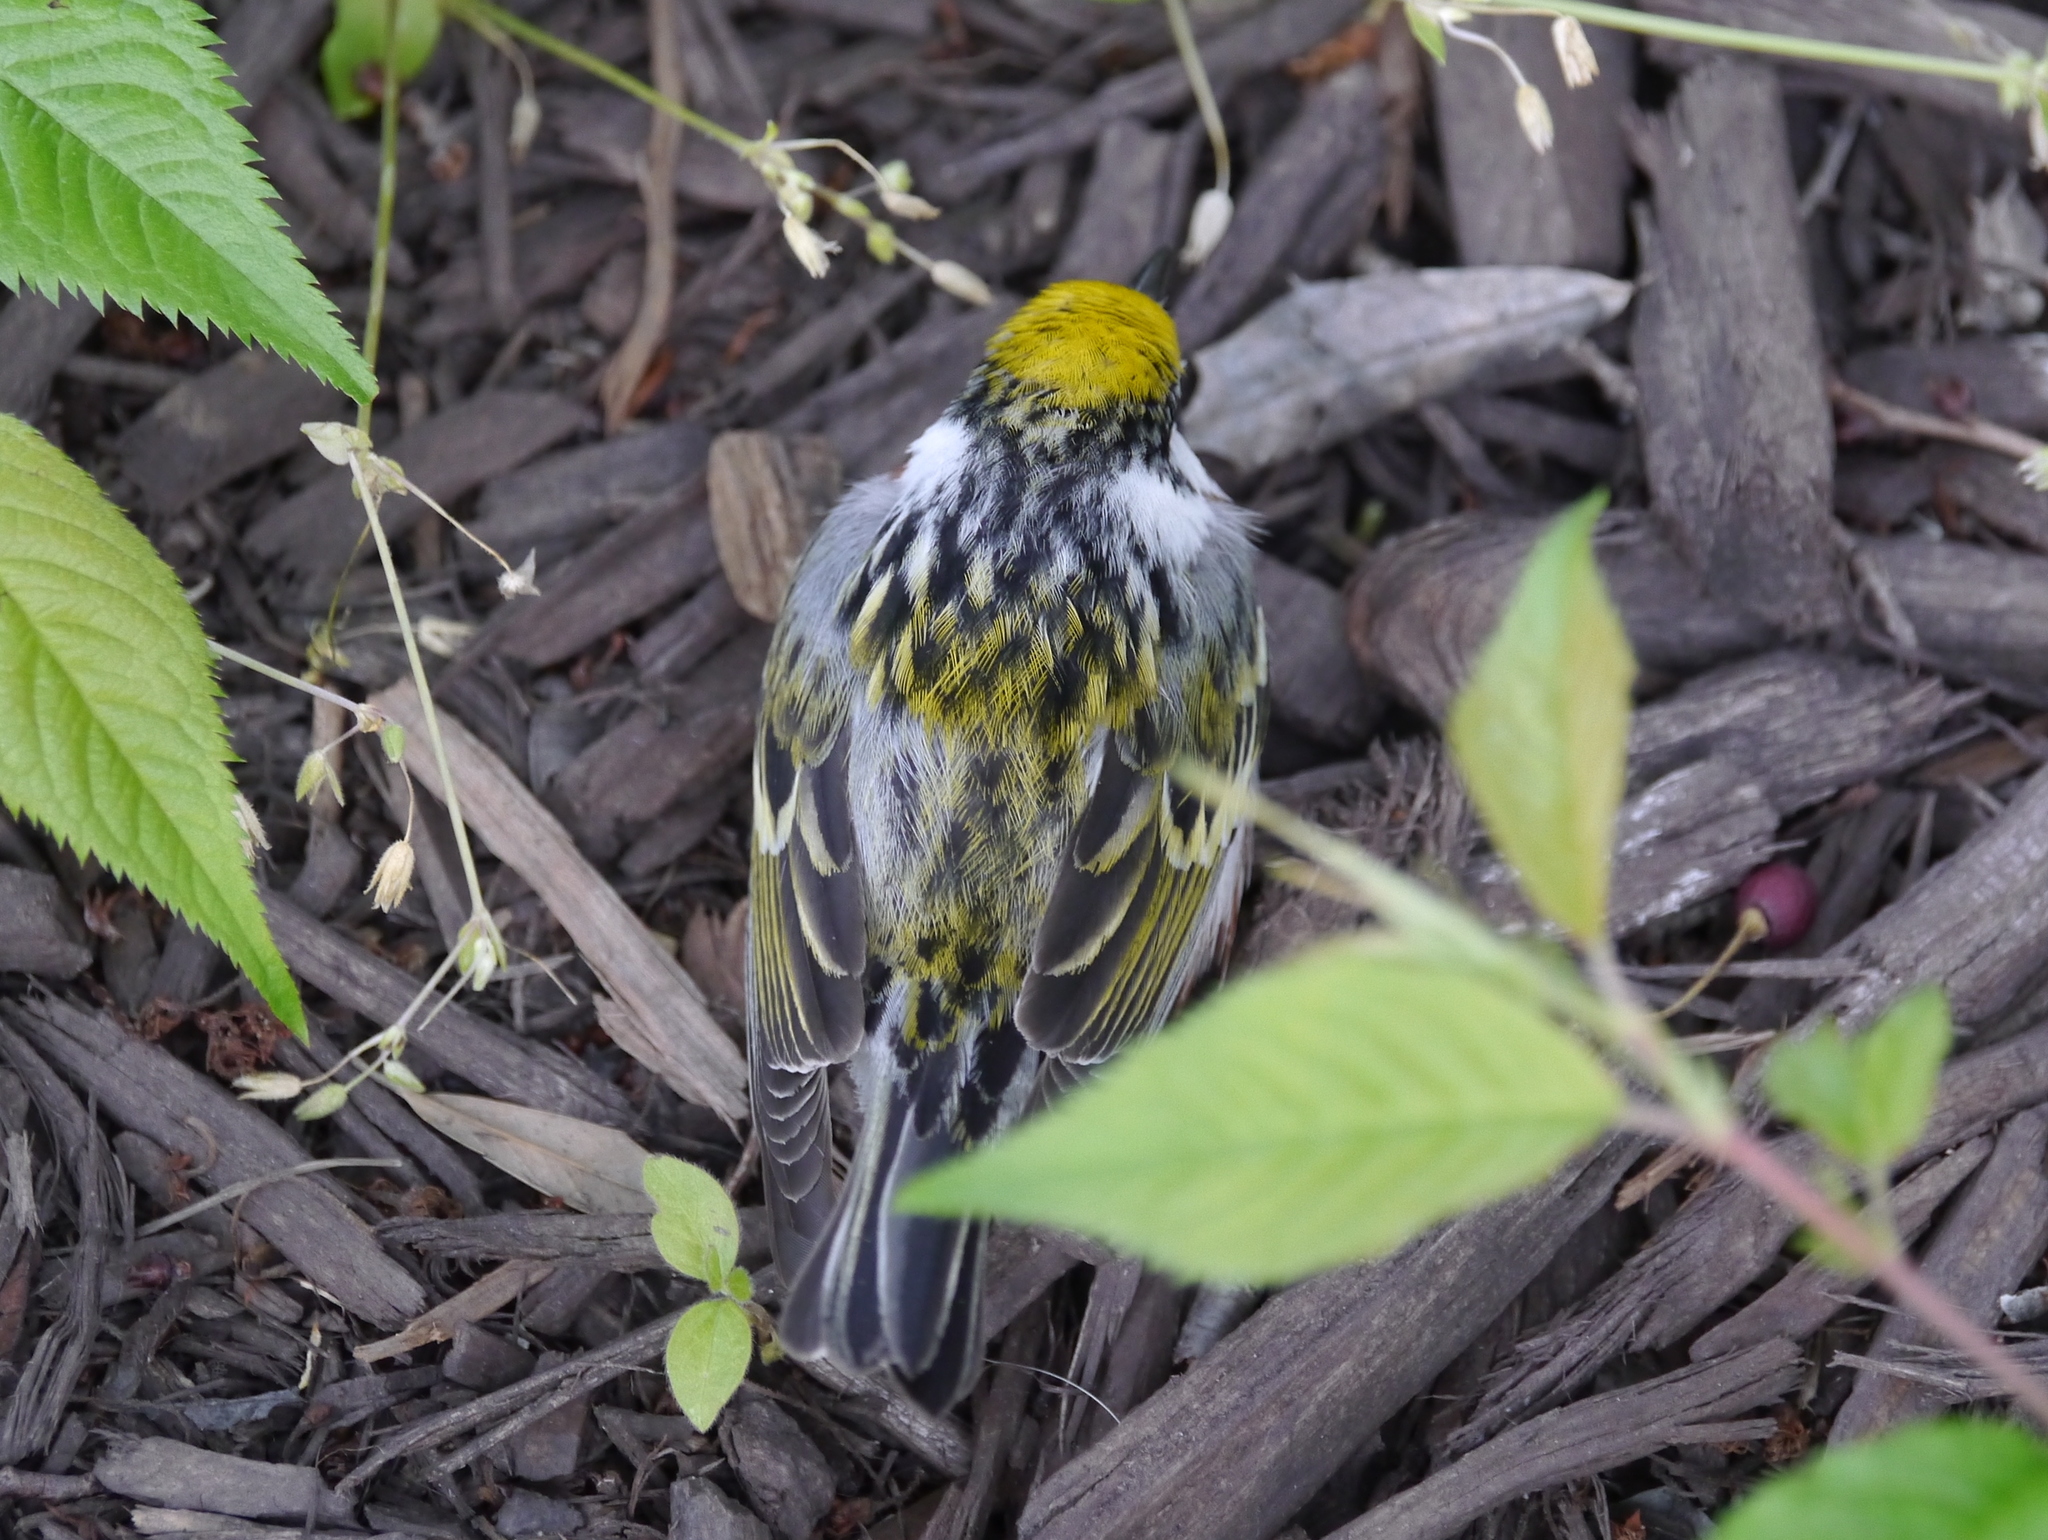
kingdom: Animalia
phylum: Chordata
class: Aves
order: Passeriformes
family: Parulidae
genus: Setophaga
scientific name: Setophaga pensylvanica
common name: Chestnut-sided warbler
